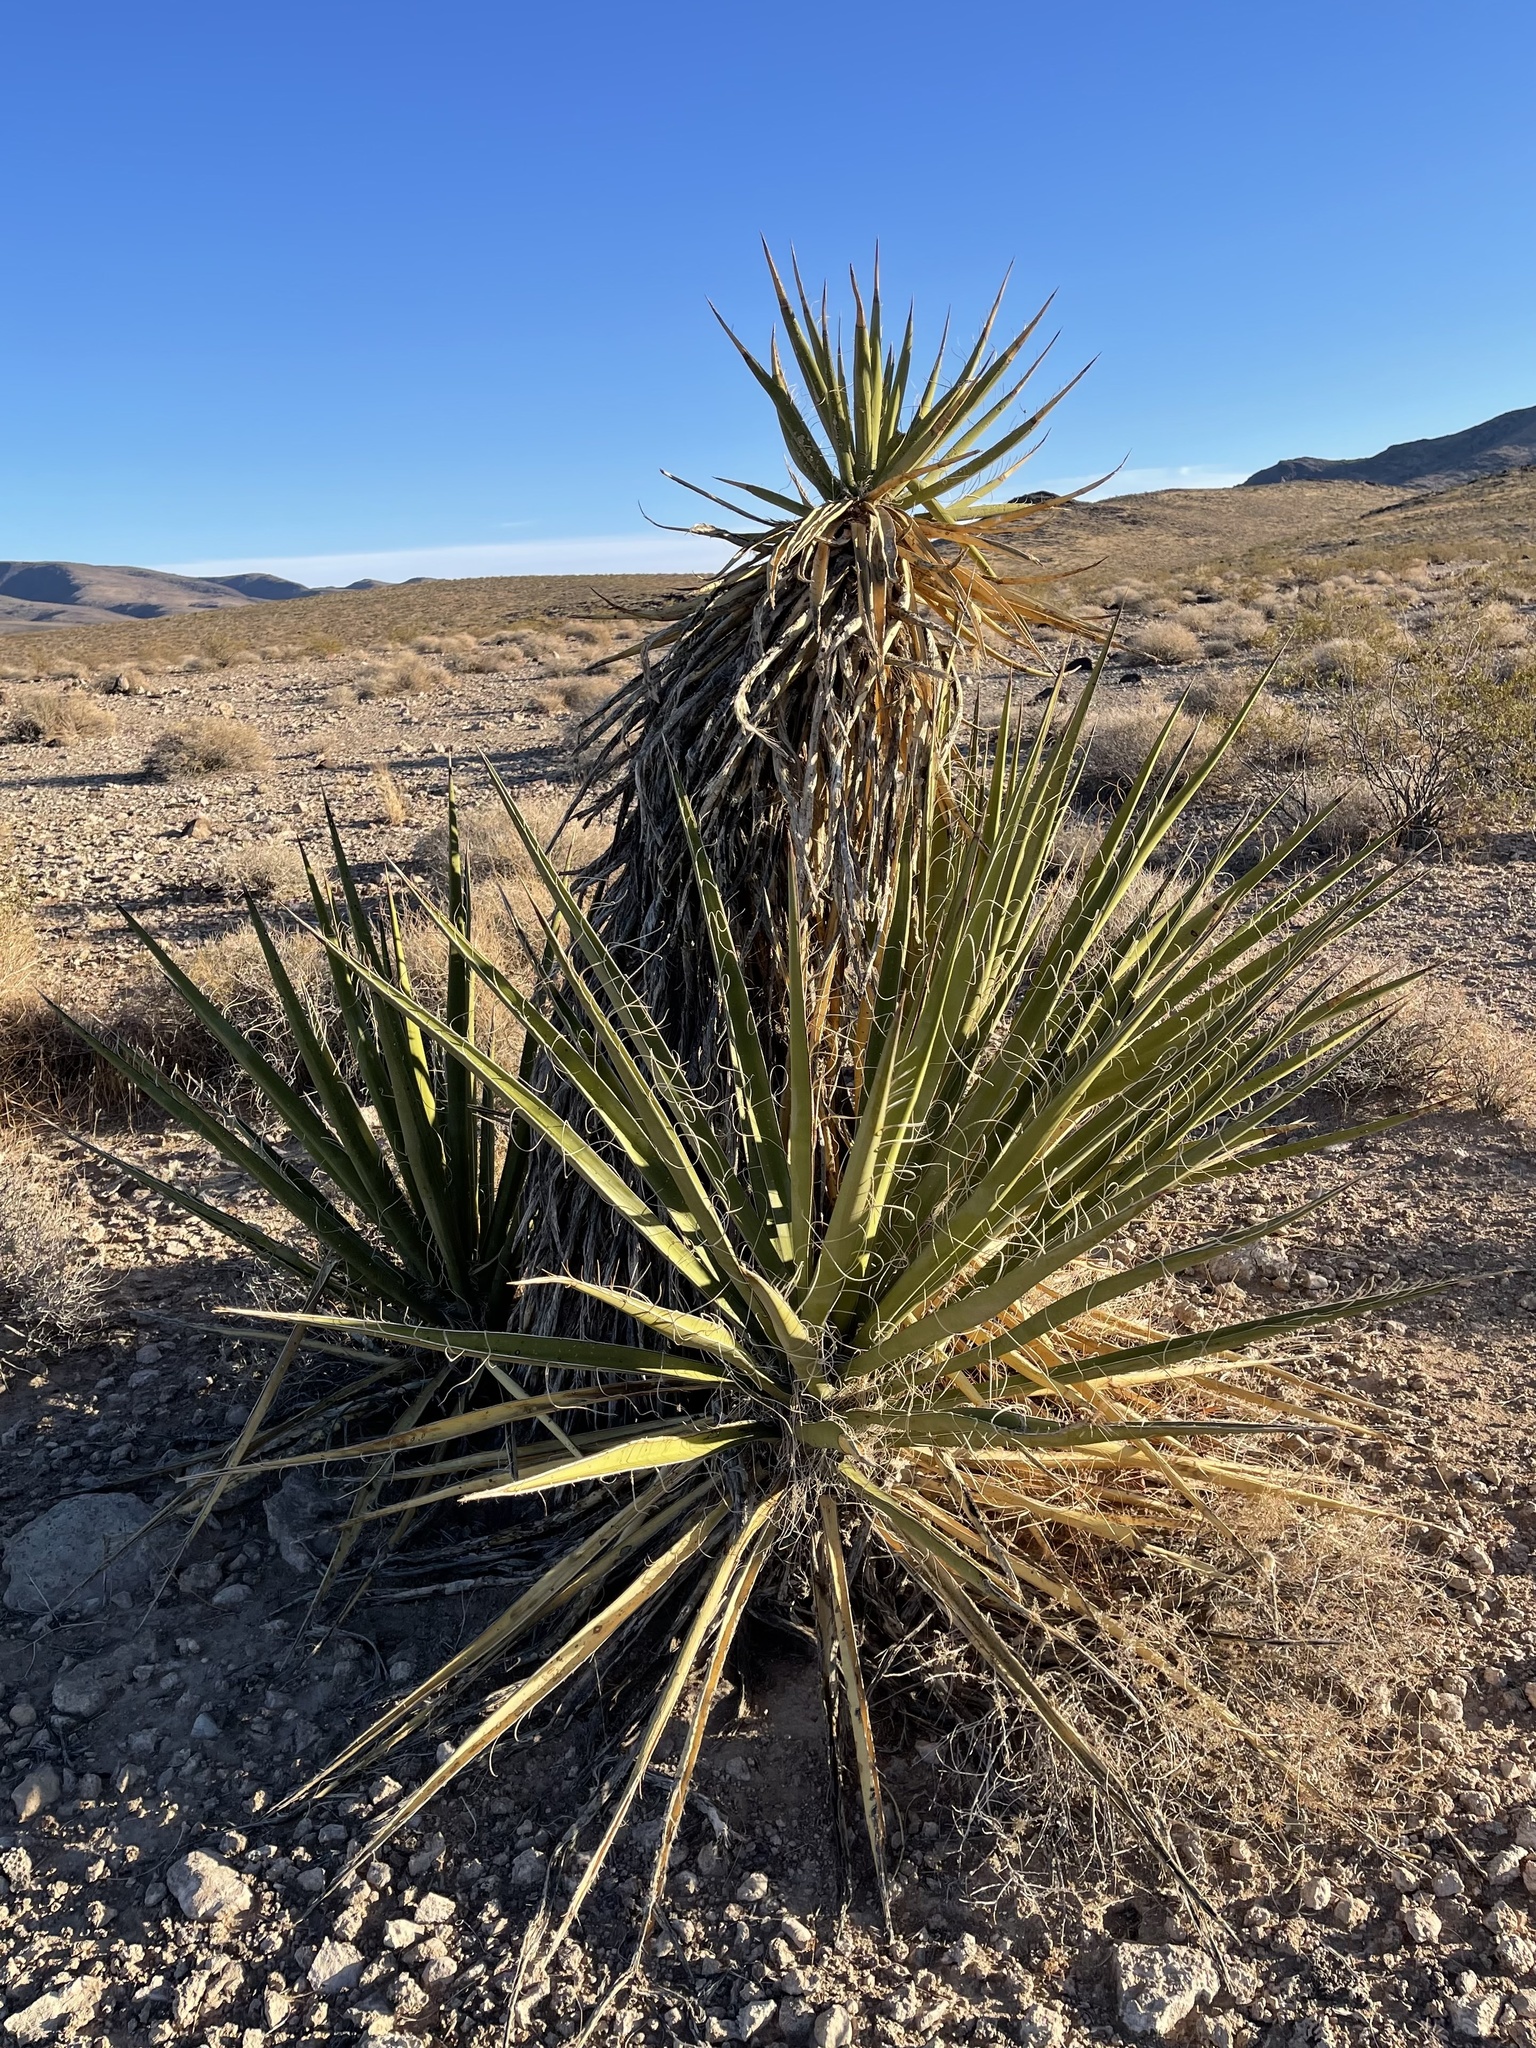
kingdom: Plantae
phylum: Tracheophyta
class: Liliopsida
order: Asparagales
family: Asparagaceae
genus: Yucca
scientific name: Yucca schidigera
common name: Mojave yucca
